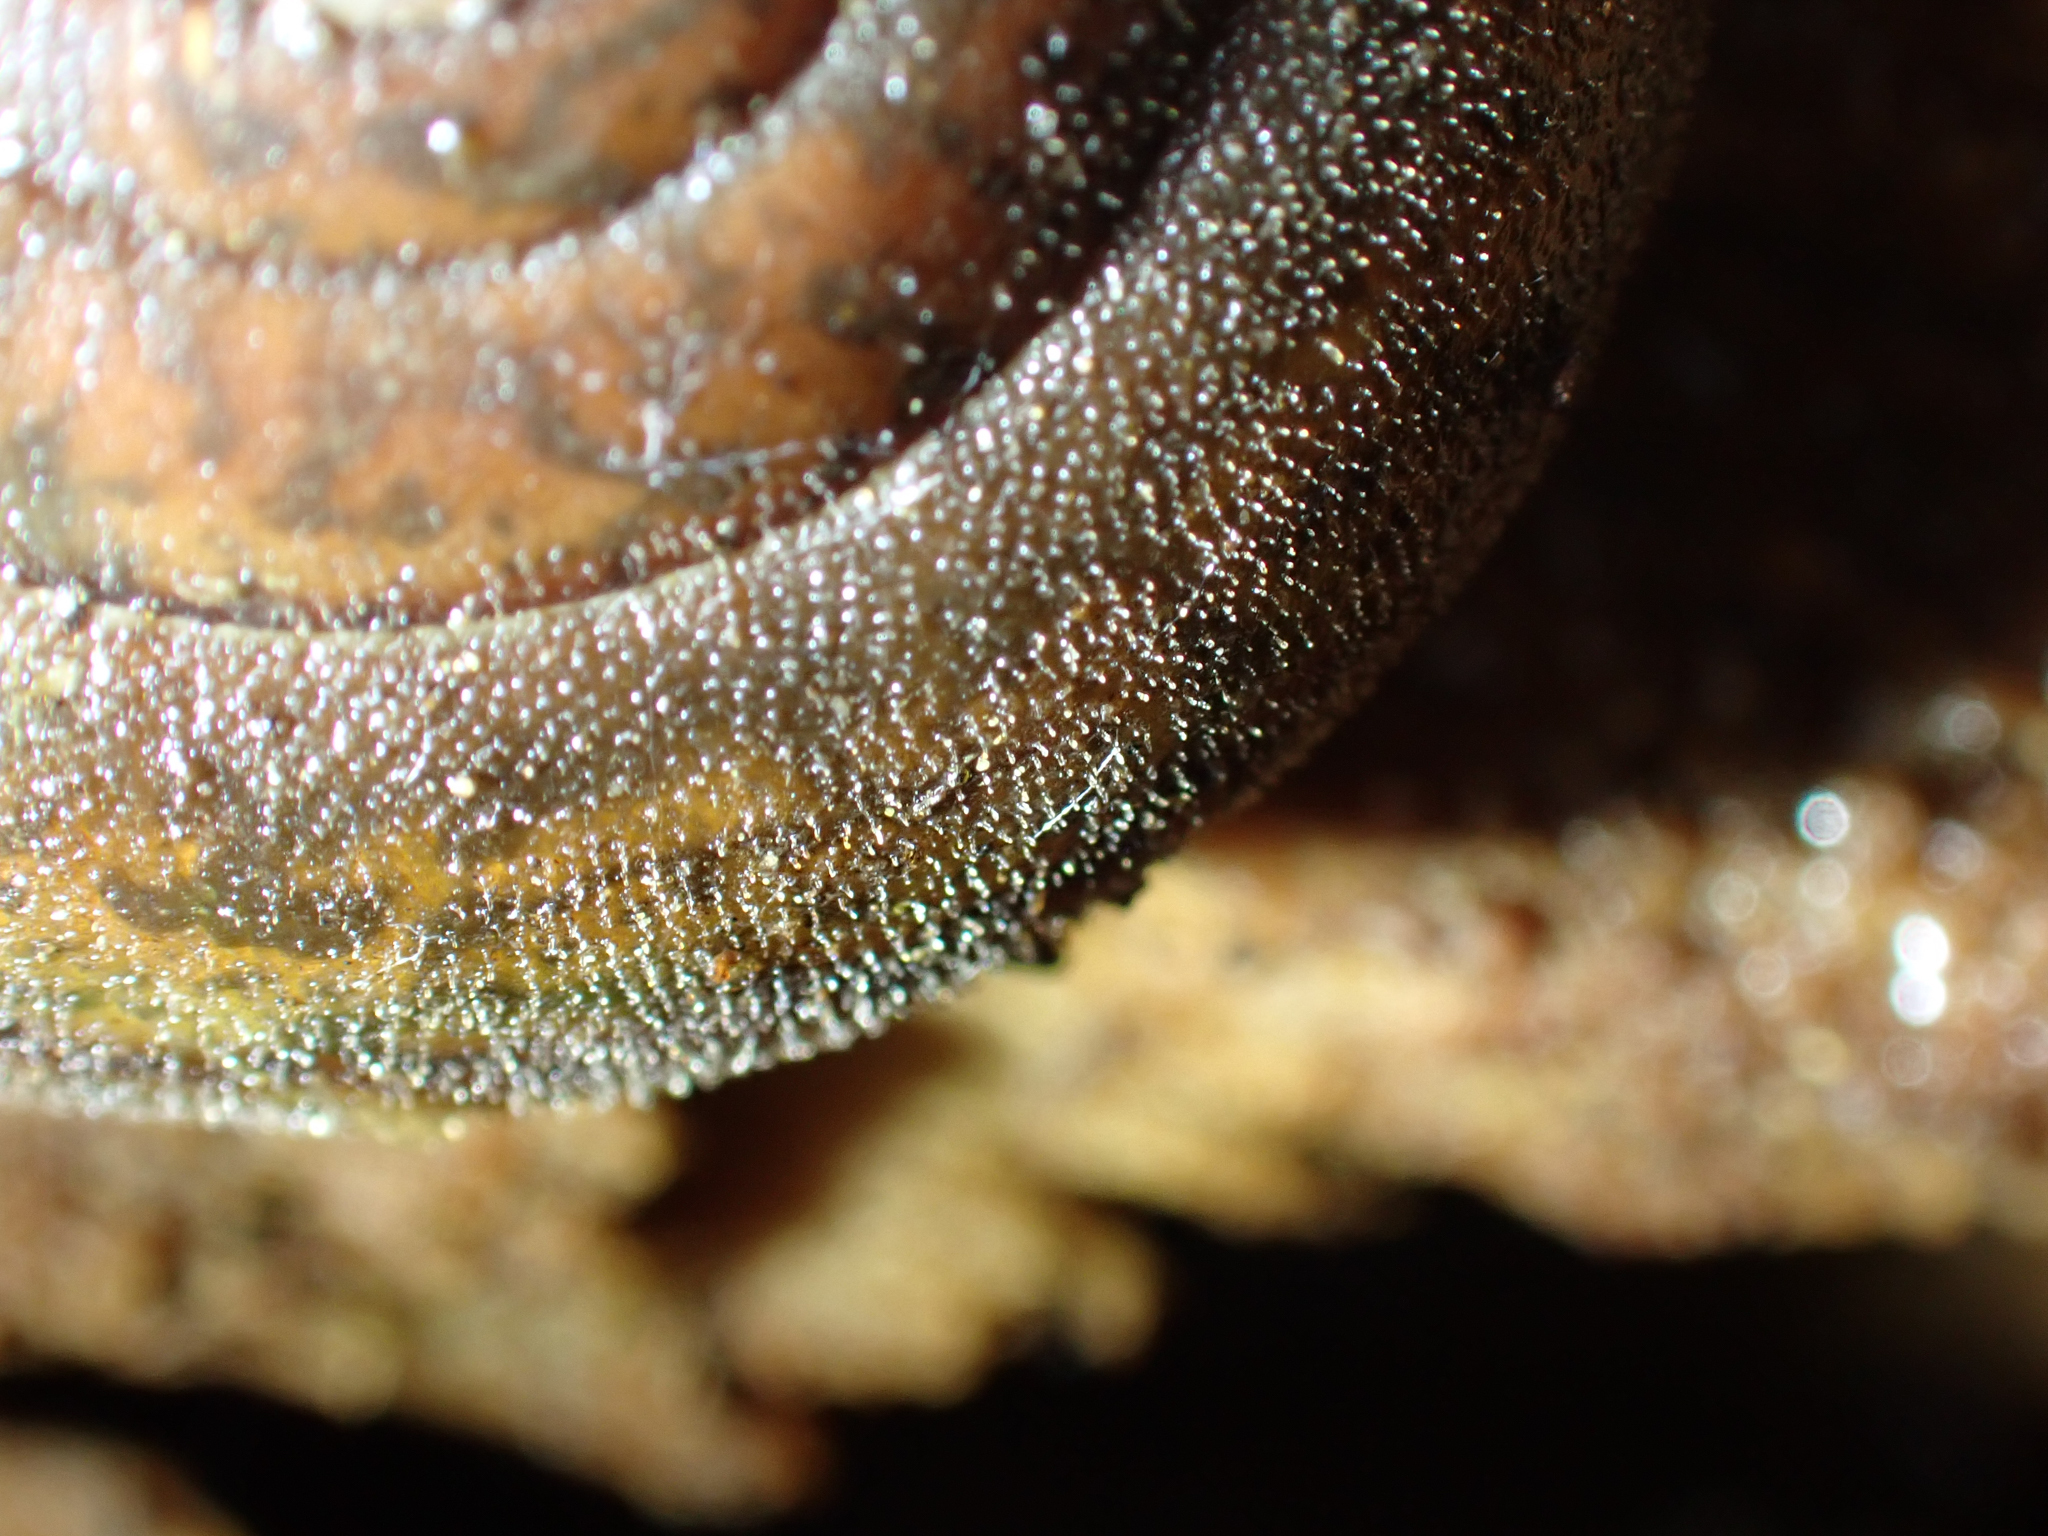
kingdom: Animalia
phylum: Mollusca
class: Gastropoda
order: Stylommatophora
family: Xanthonychidae
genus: Rothelix
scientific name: Rothelix lowei
